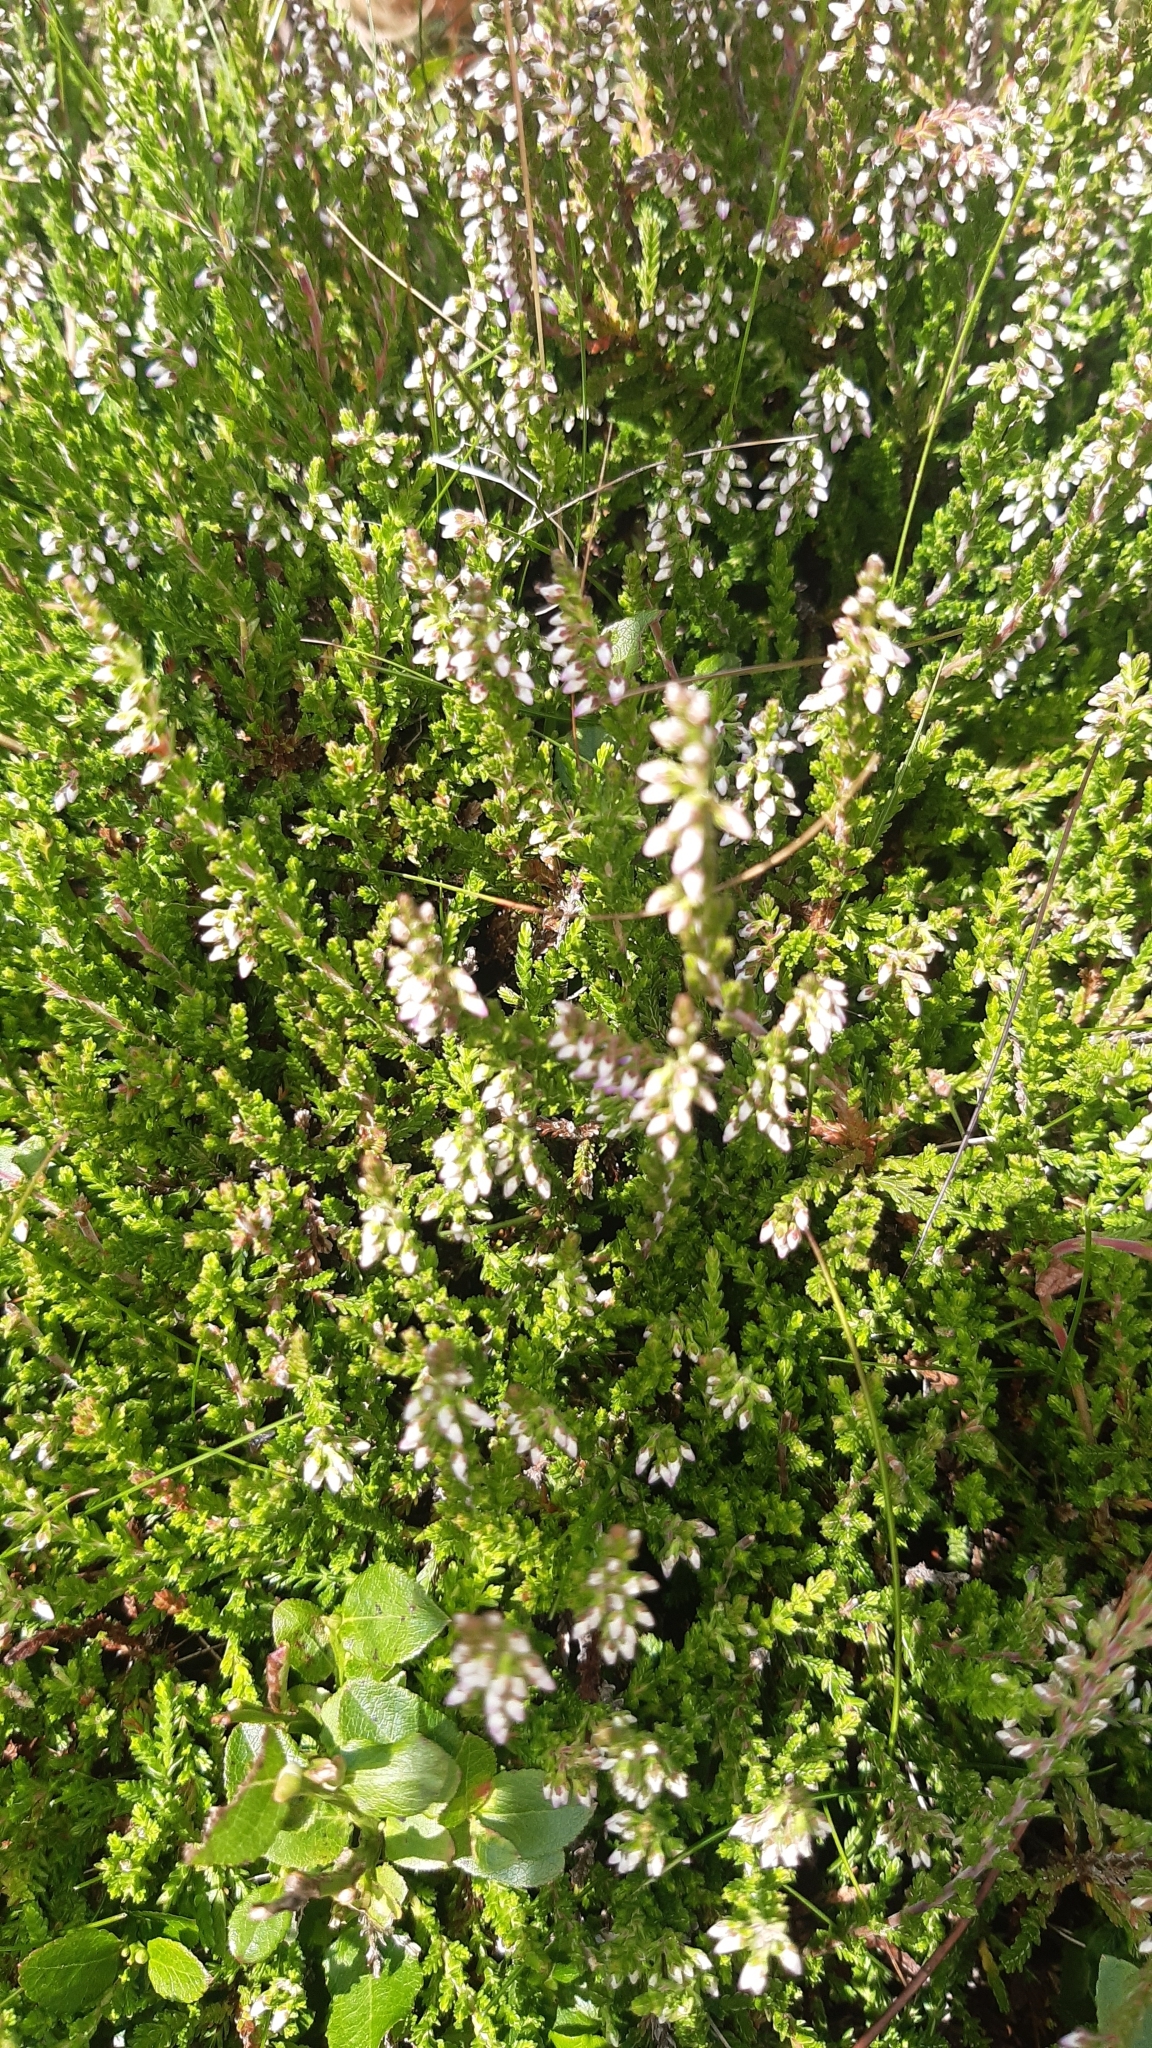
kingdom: Plantae
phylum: Tracheophyta
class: Magnoliopsida
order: Ericales
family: Ericaceae
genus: Calluna
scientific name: Calluna vulgaris
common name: Heather
